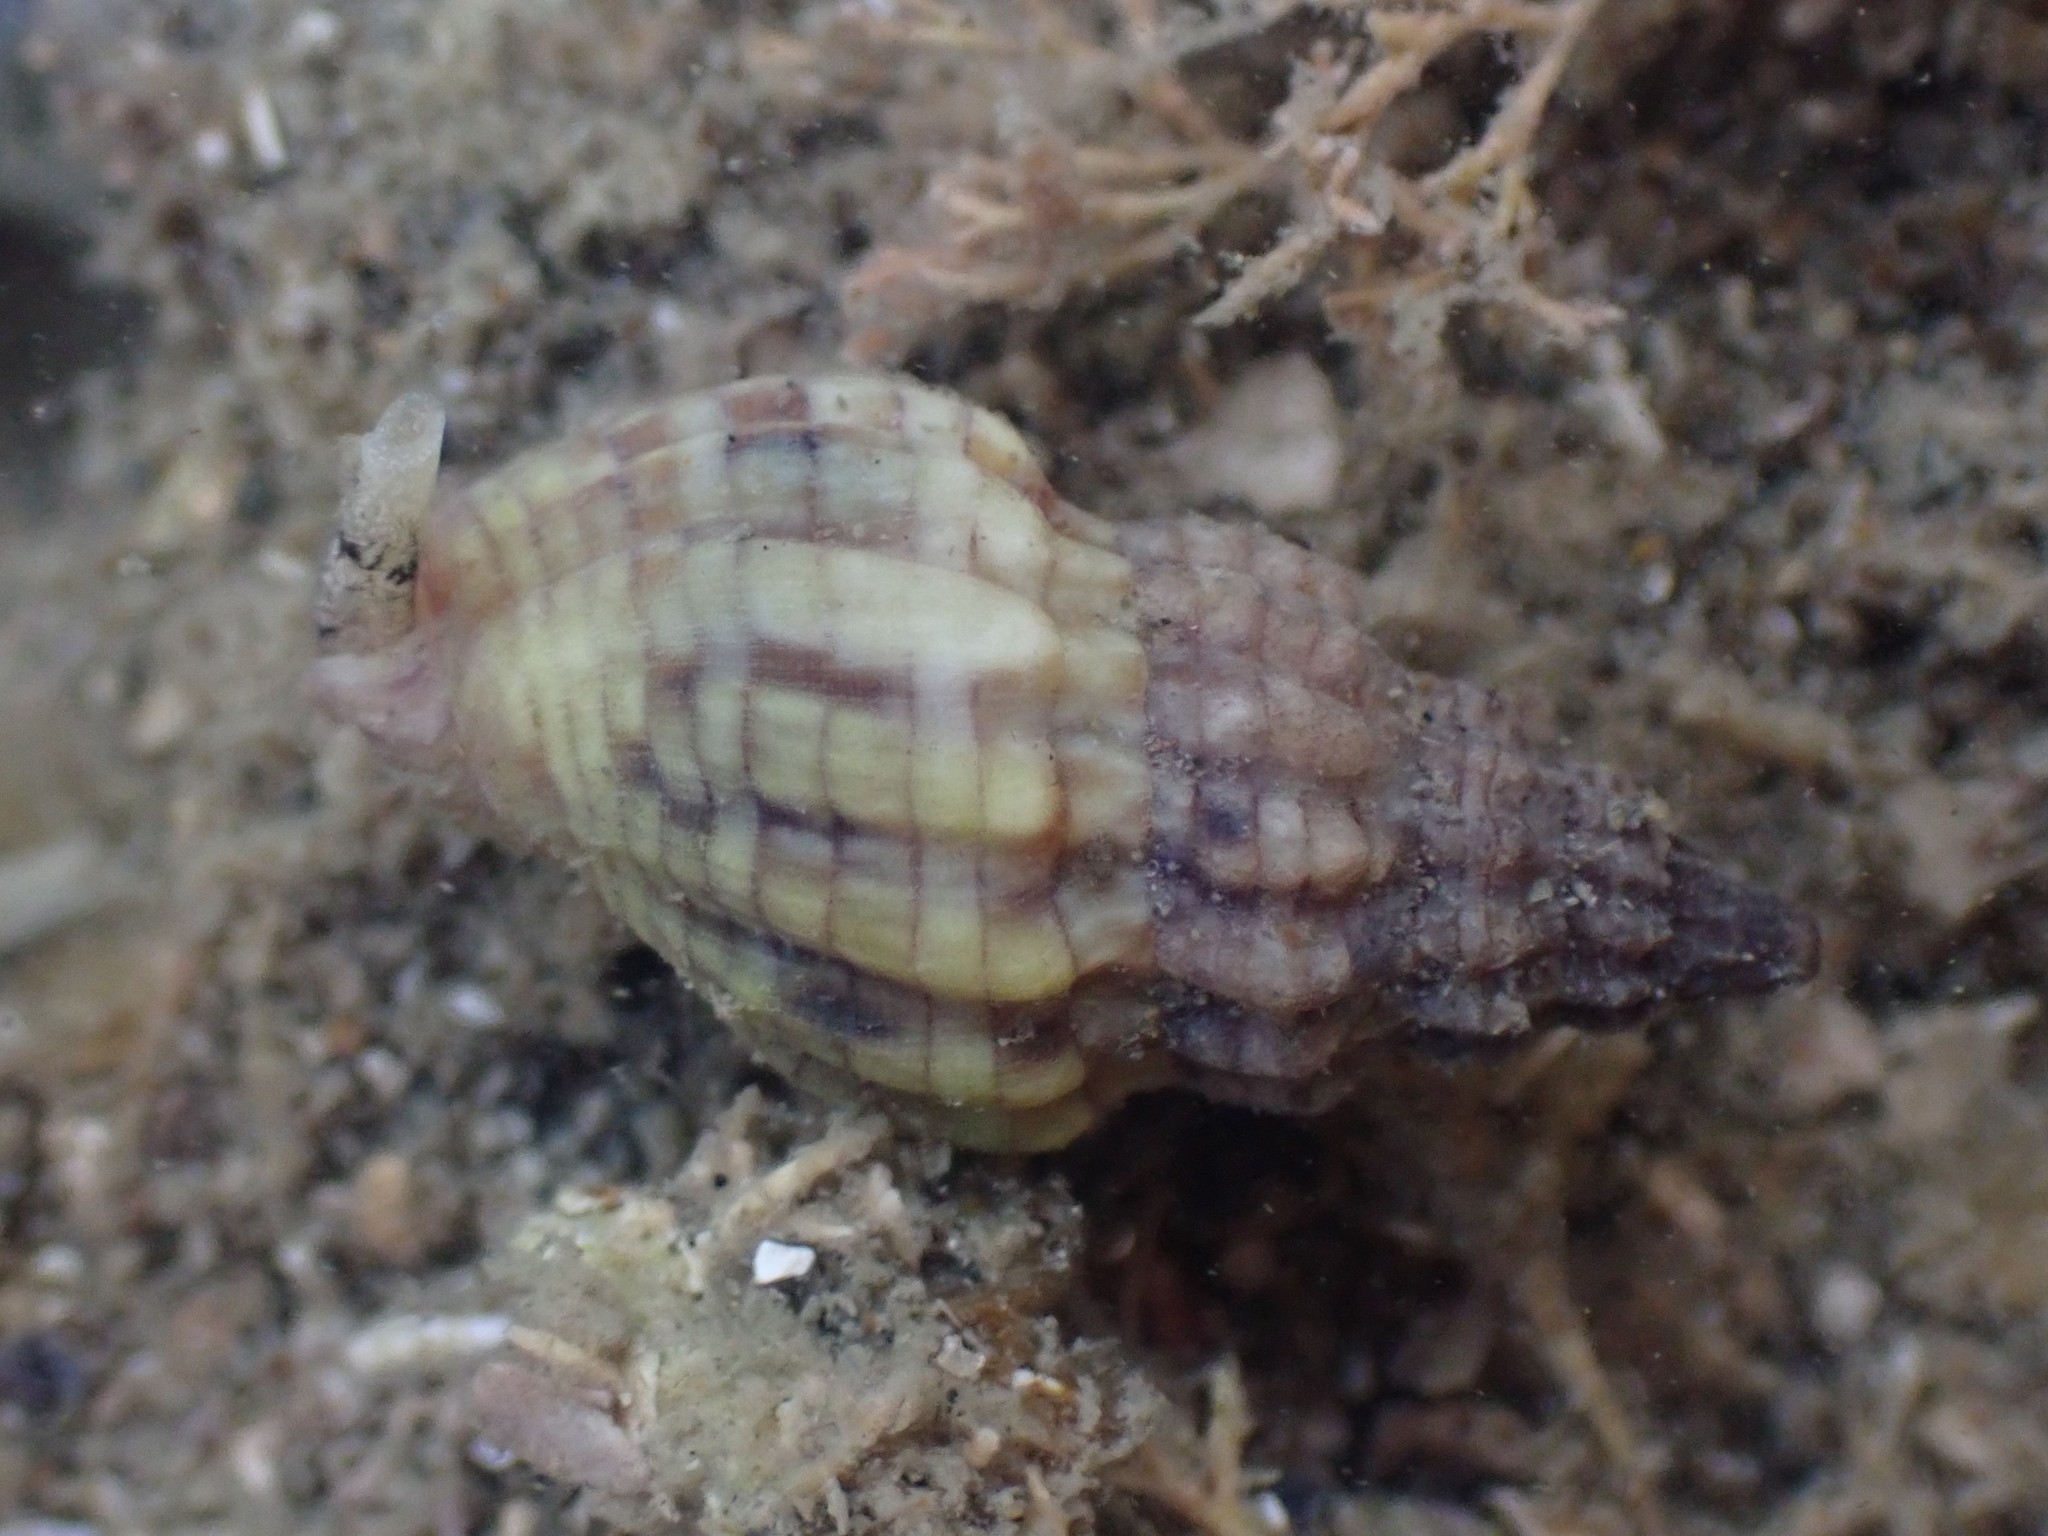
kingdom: Animalia
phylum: Mollusca
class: Gastropoda
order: Neogastropoda
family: Cominellidae
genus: Cominella
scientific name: Cominella quoyana
